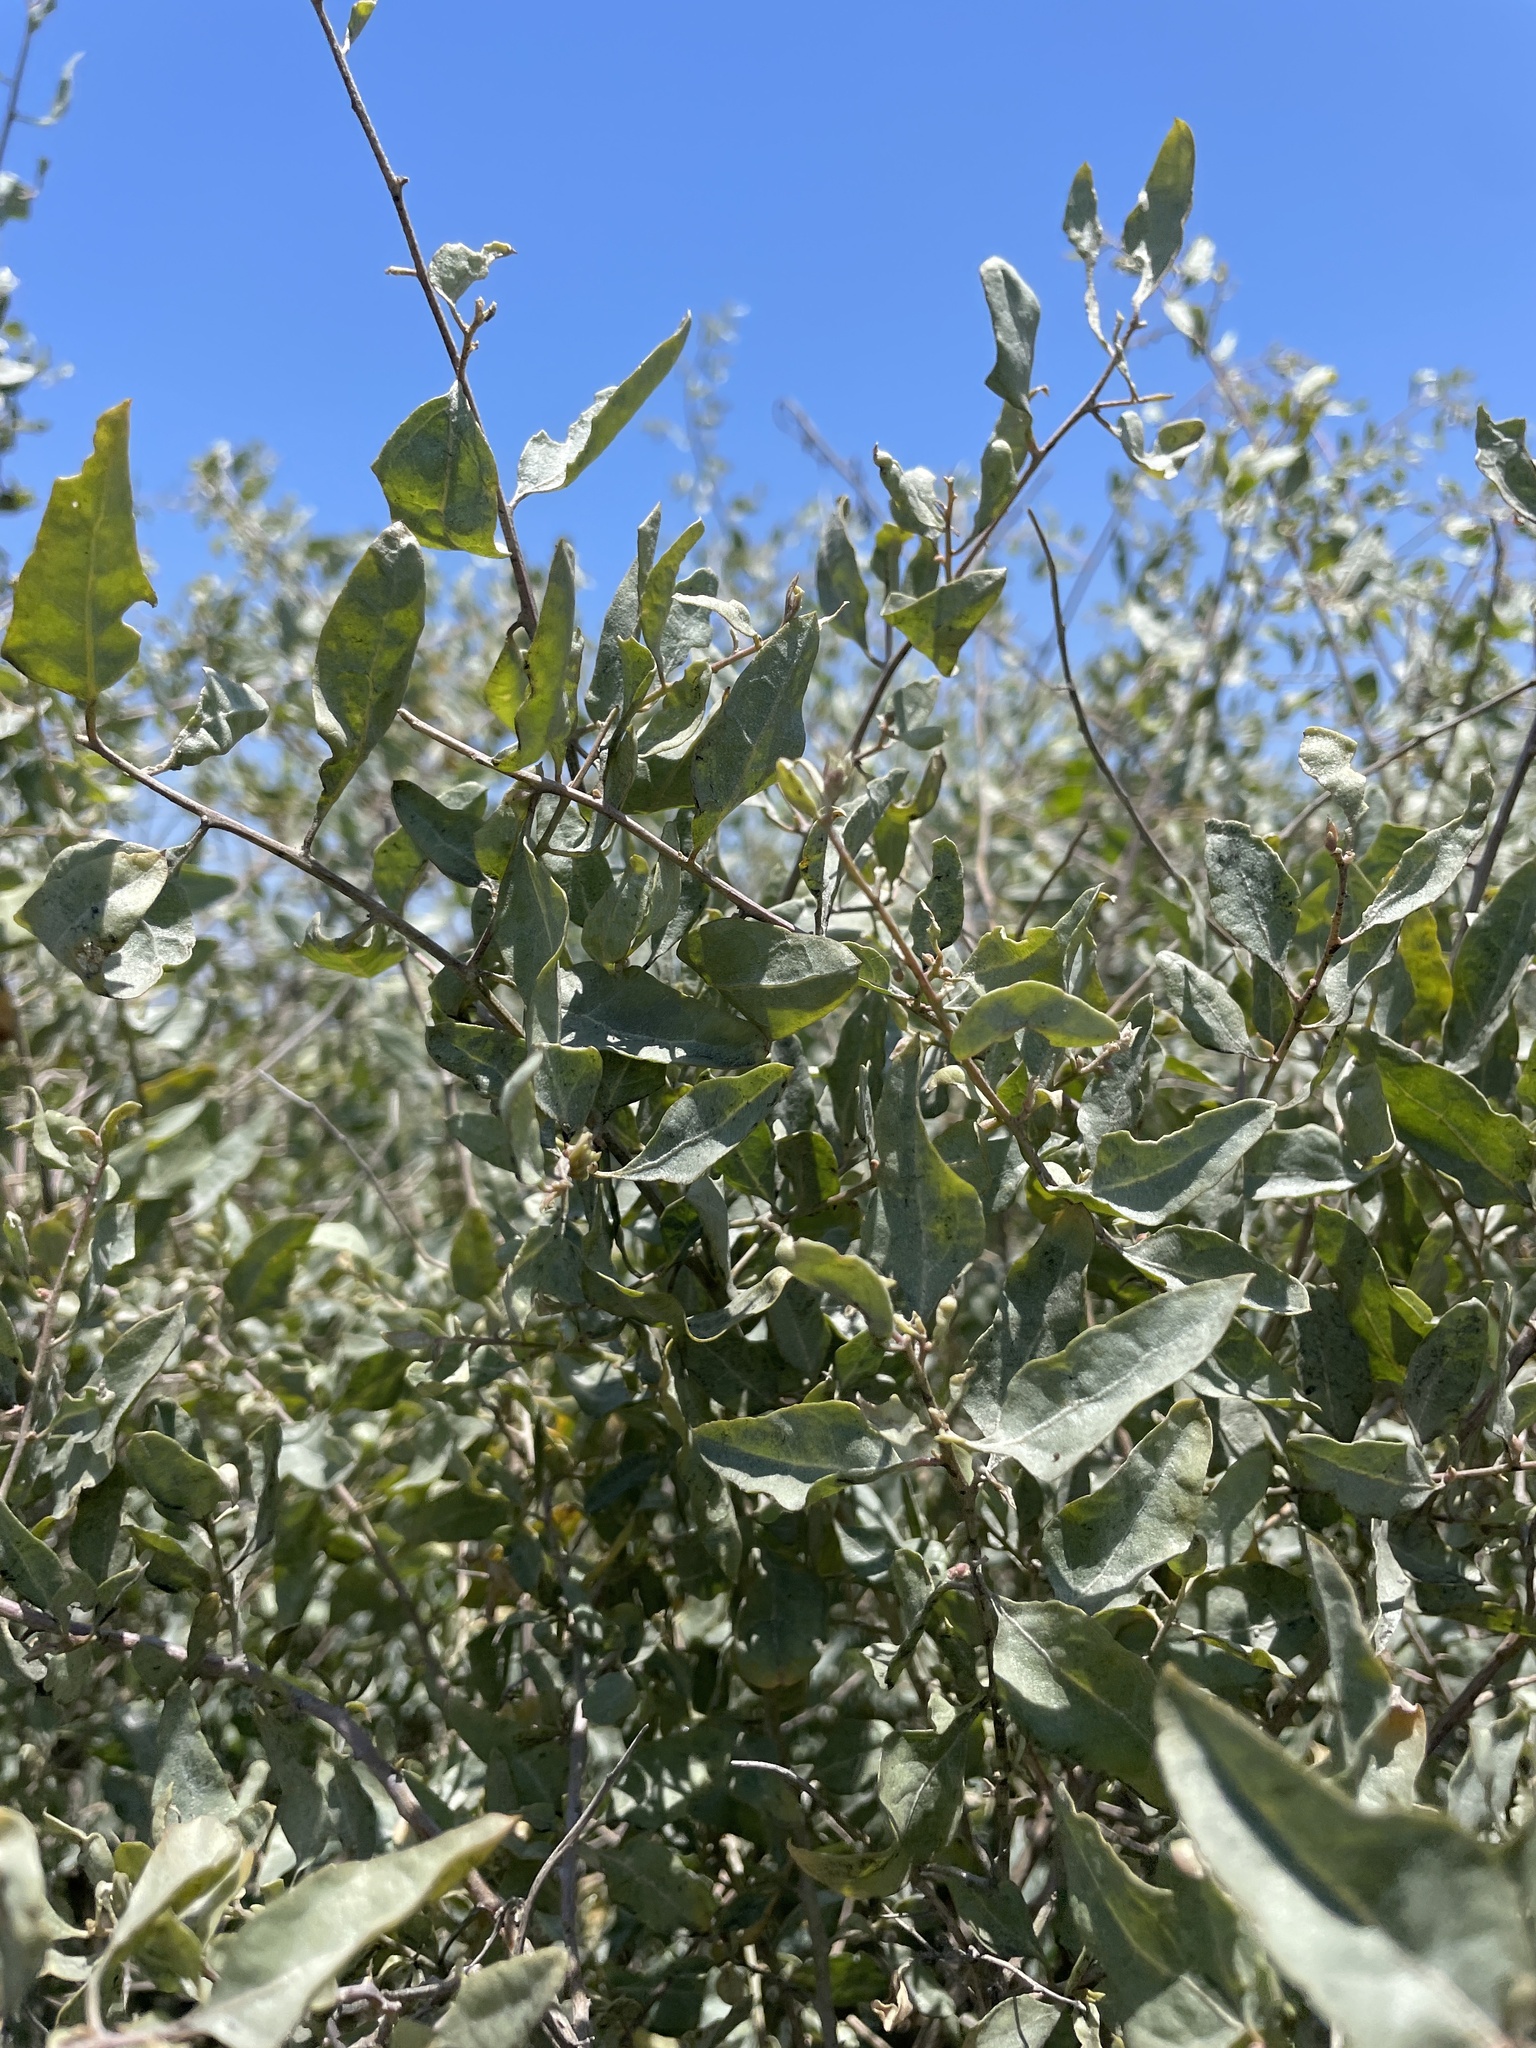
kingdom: Plantae
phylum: Tracheophyta
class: Magnoliopsida
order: Caryophyllales
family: Amaranthaceae
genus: Atriplex
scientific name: Atriplex lentiformis
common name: Big saltbush
